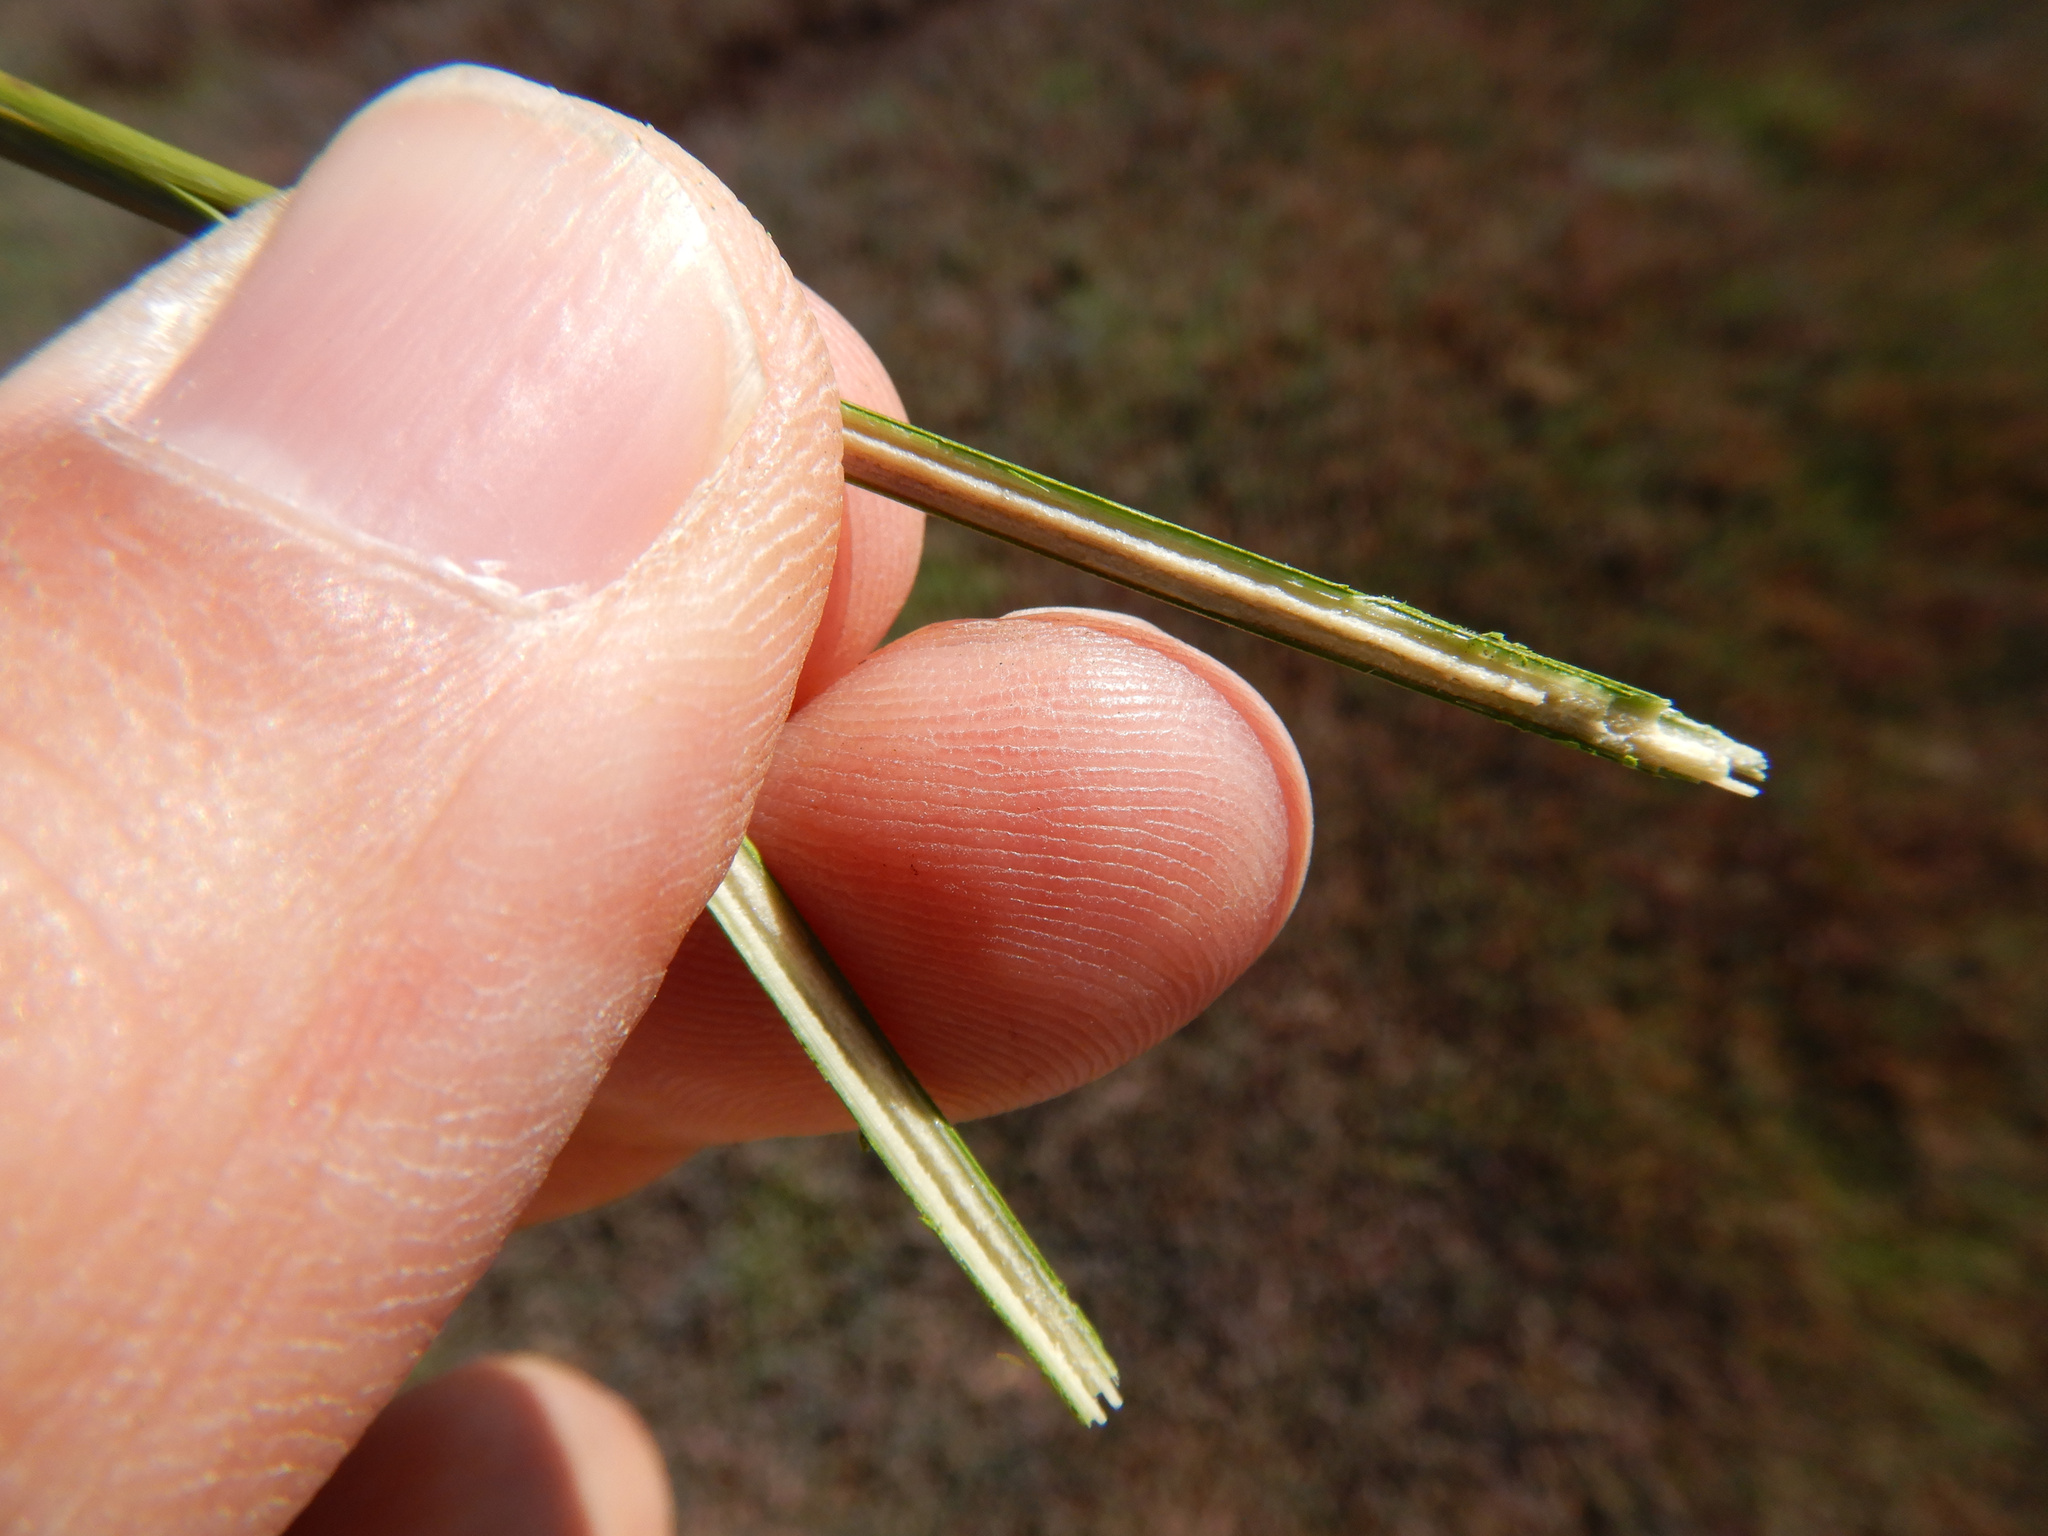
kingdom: Plantae
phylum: Tracheophyta
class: Liliopsida
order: Poales
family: Juncaceae
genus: Juncus
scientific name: Juncus kraussii
